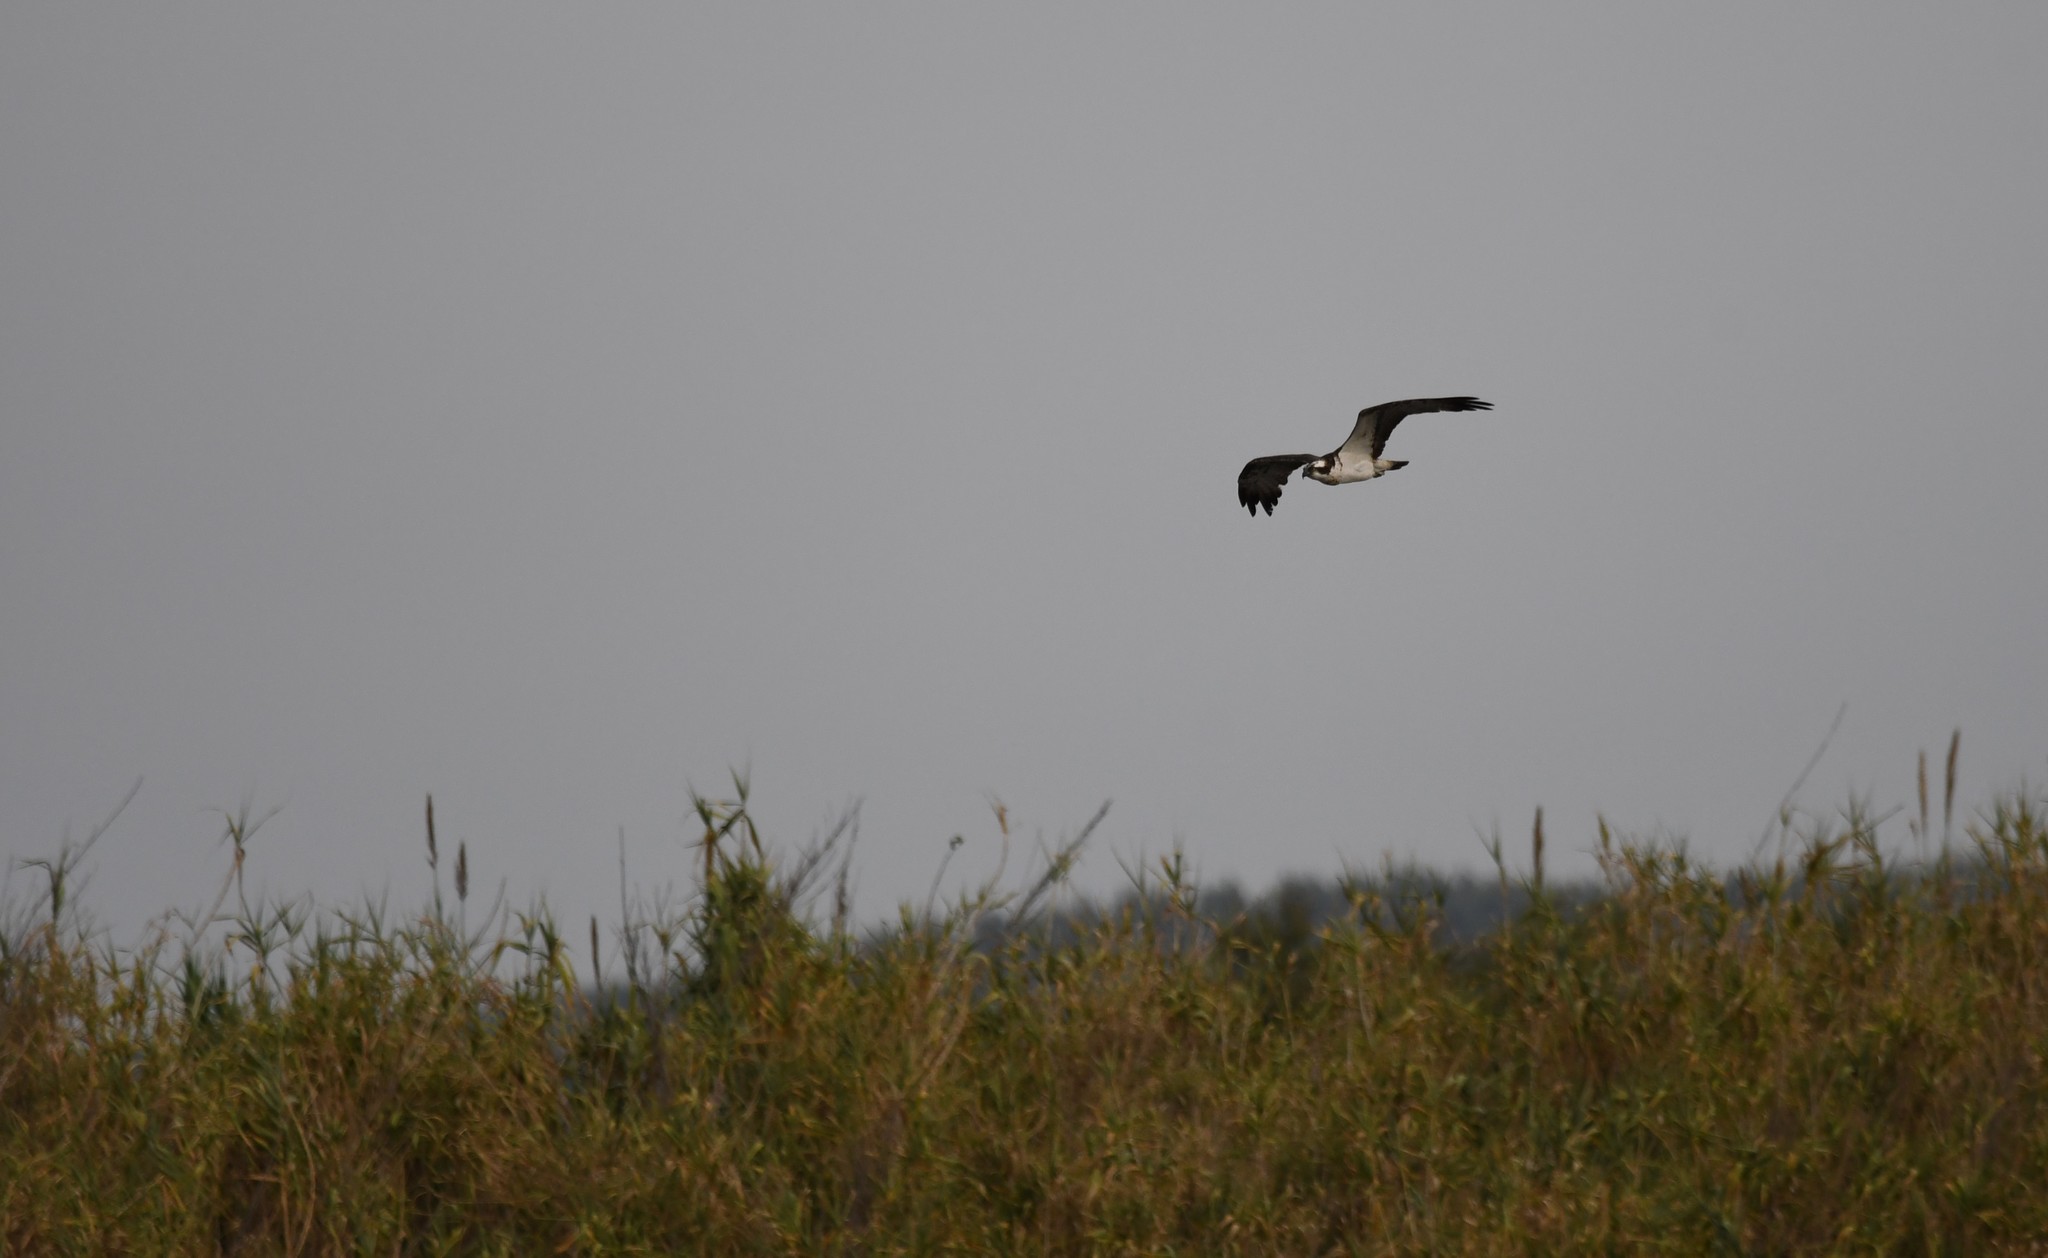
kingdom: Animalia
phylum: Chordata
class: Aves
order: Accipitriformes
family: Pandionidae
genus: Pandion
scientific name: Pandion haliaetus
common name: Osprey
